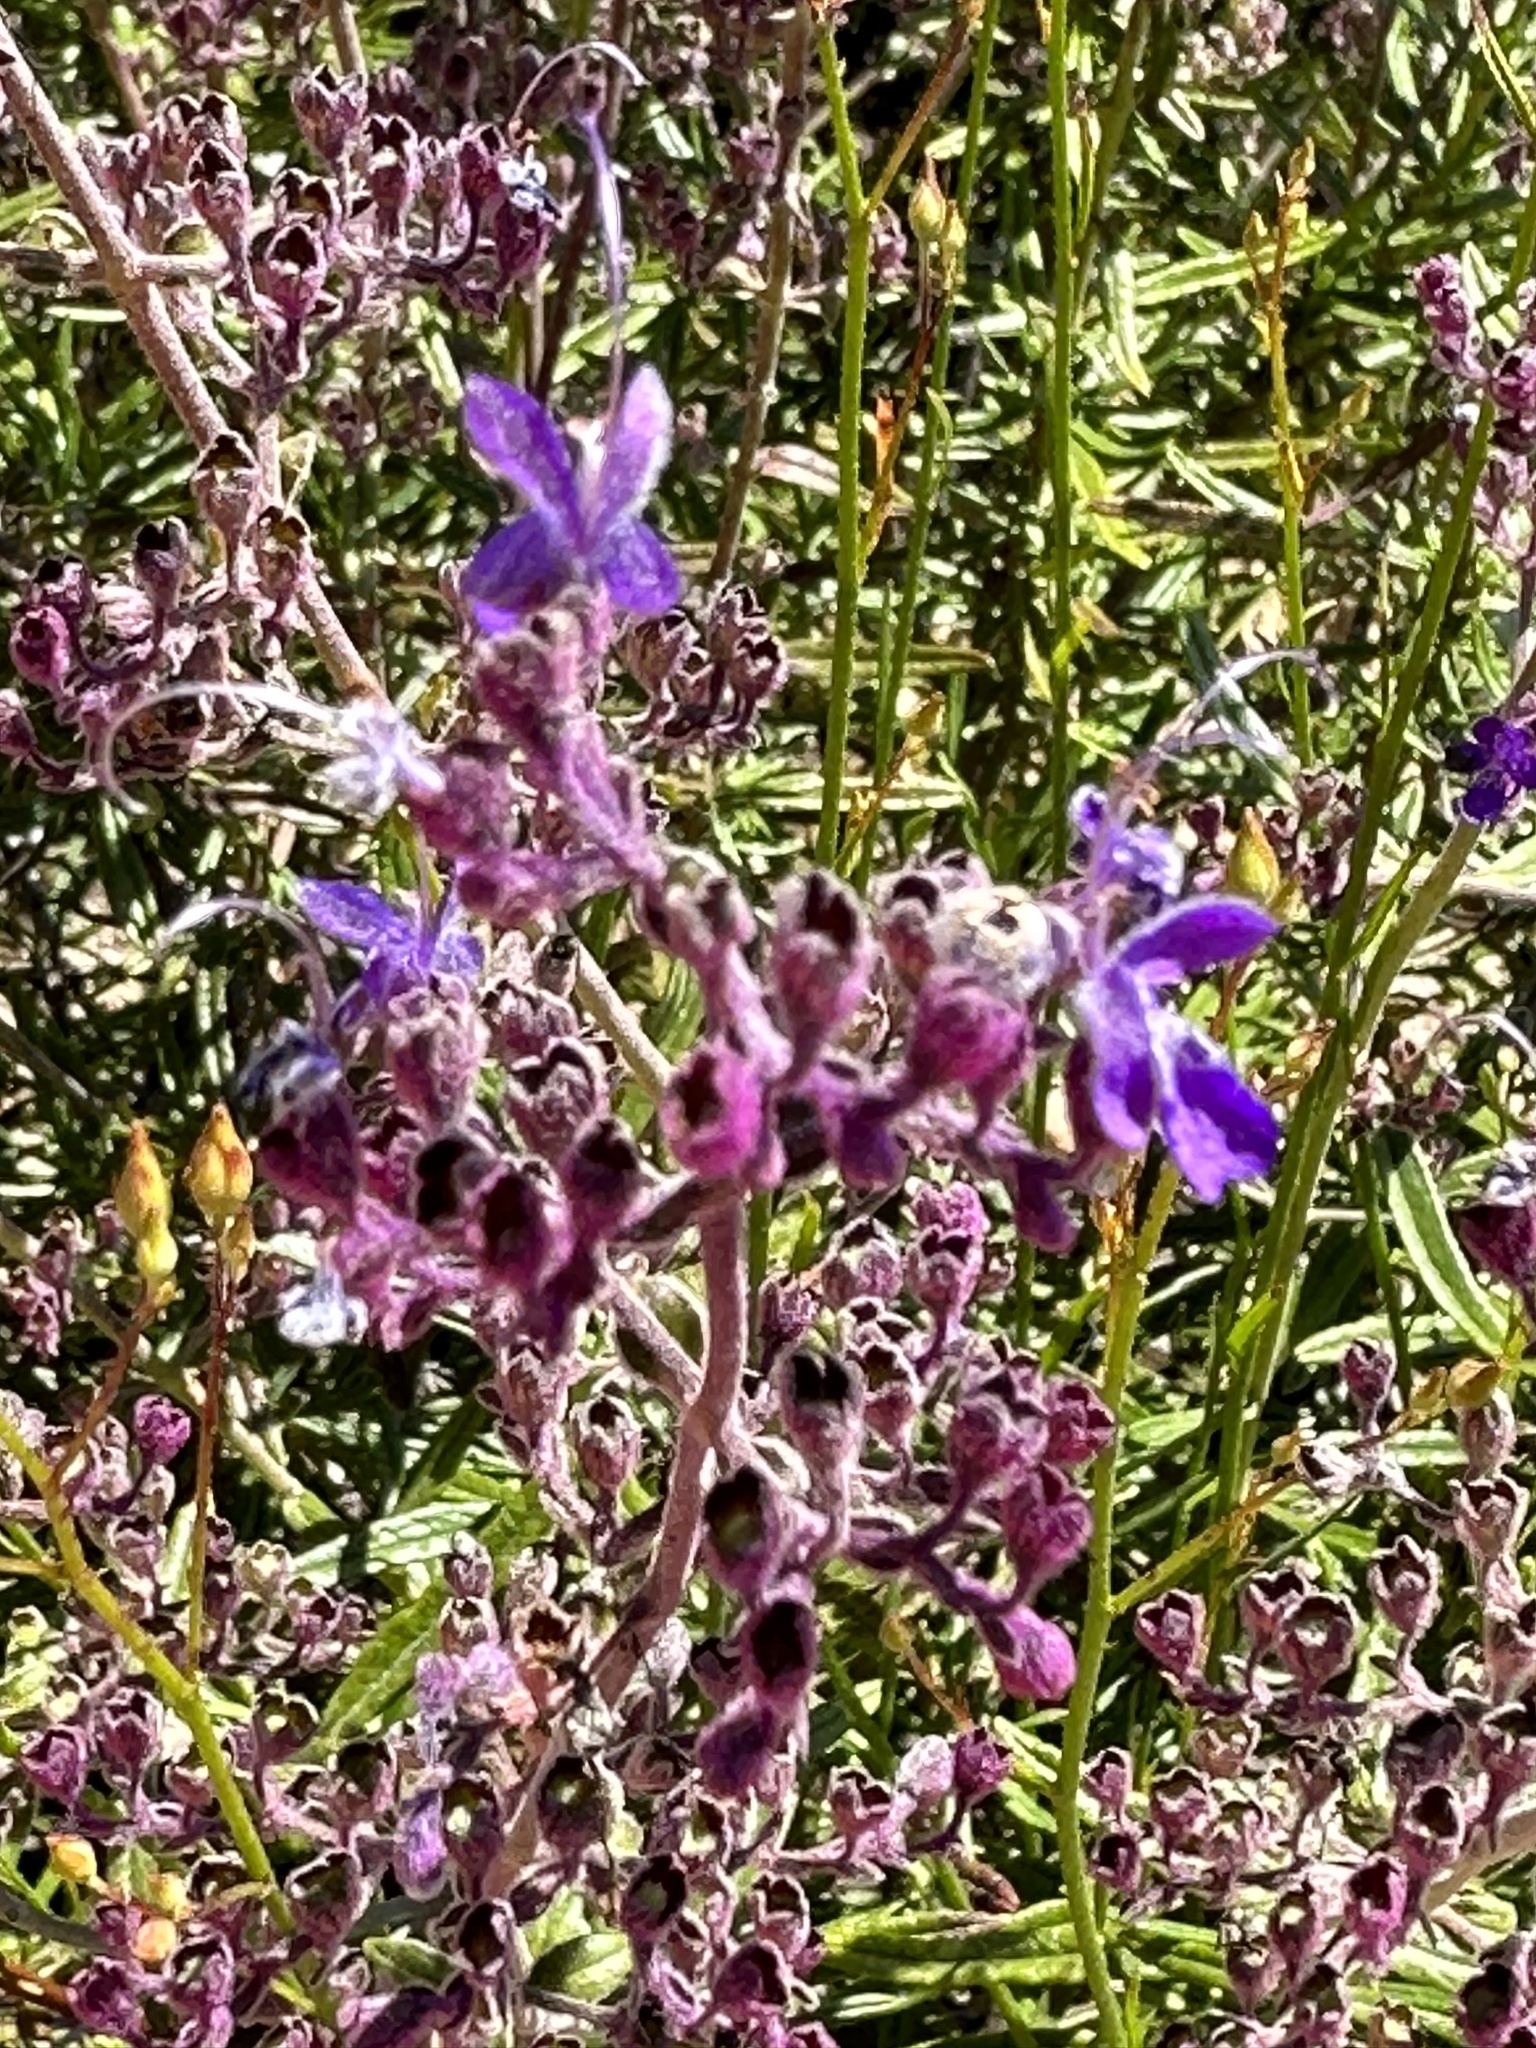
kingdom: Plantae
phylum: Tracheophyta
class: Magnoliopsida
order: Lamiales
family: Lamiaceae
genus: Trichostema
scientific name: Trichostema parishii
